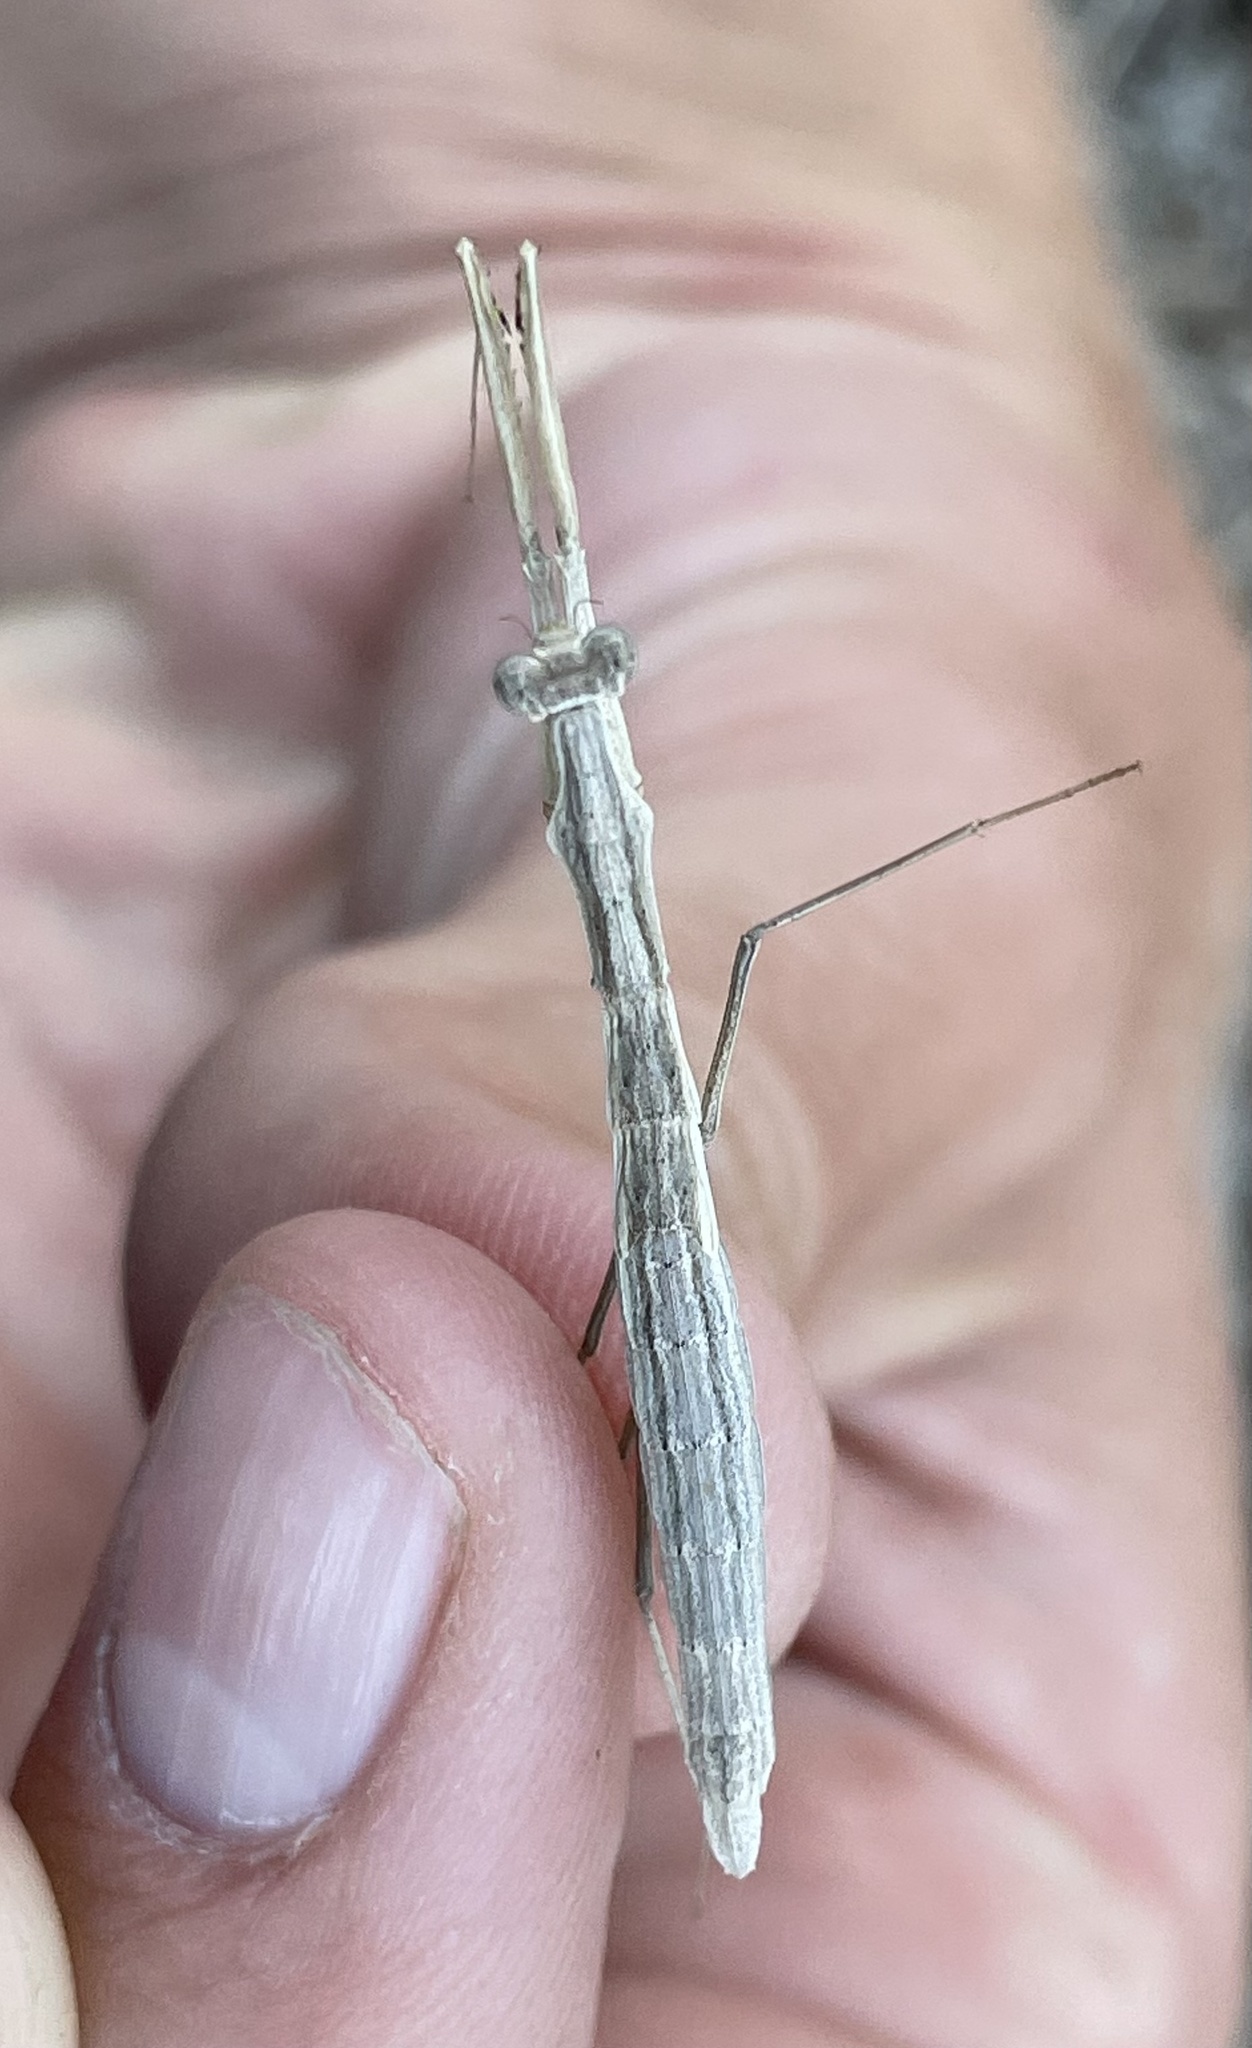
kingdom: Animalia
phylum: Arthropoda
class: Insecta
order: Mantodea
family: Thespidae
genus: Oligonicella
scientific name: Oligonicella scudderi
